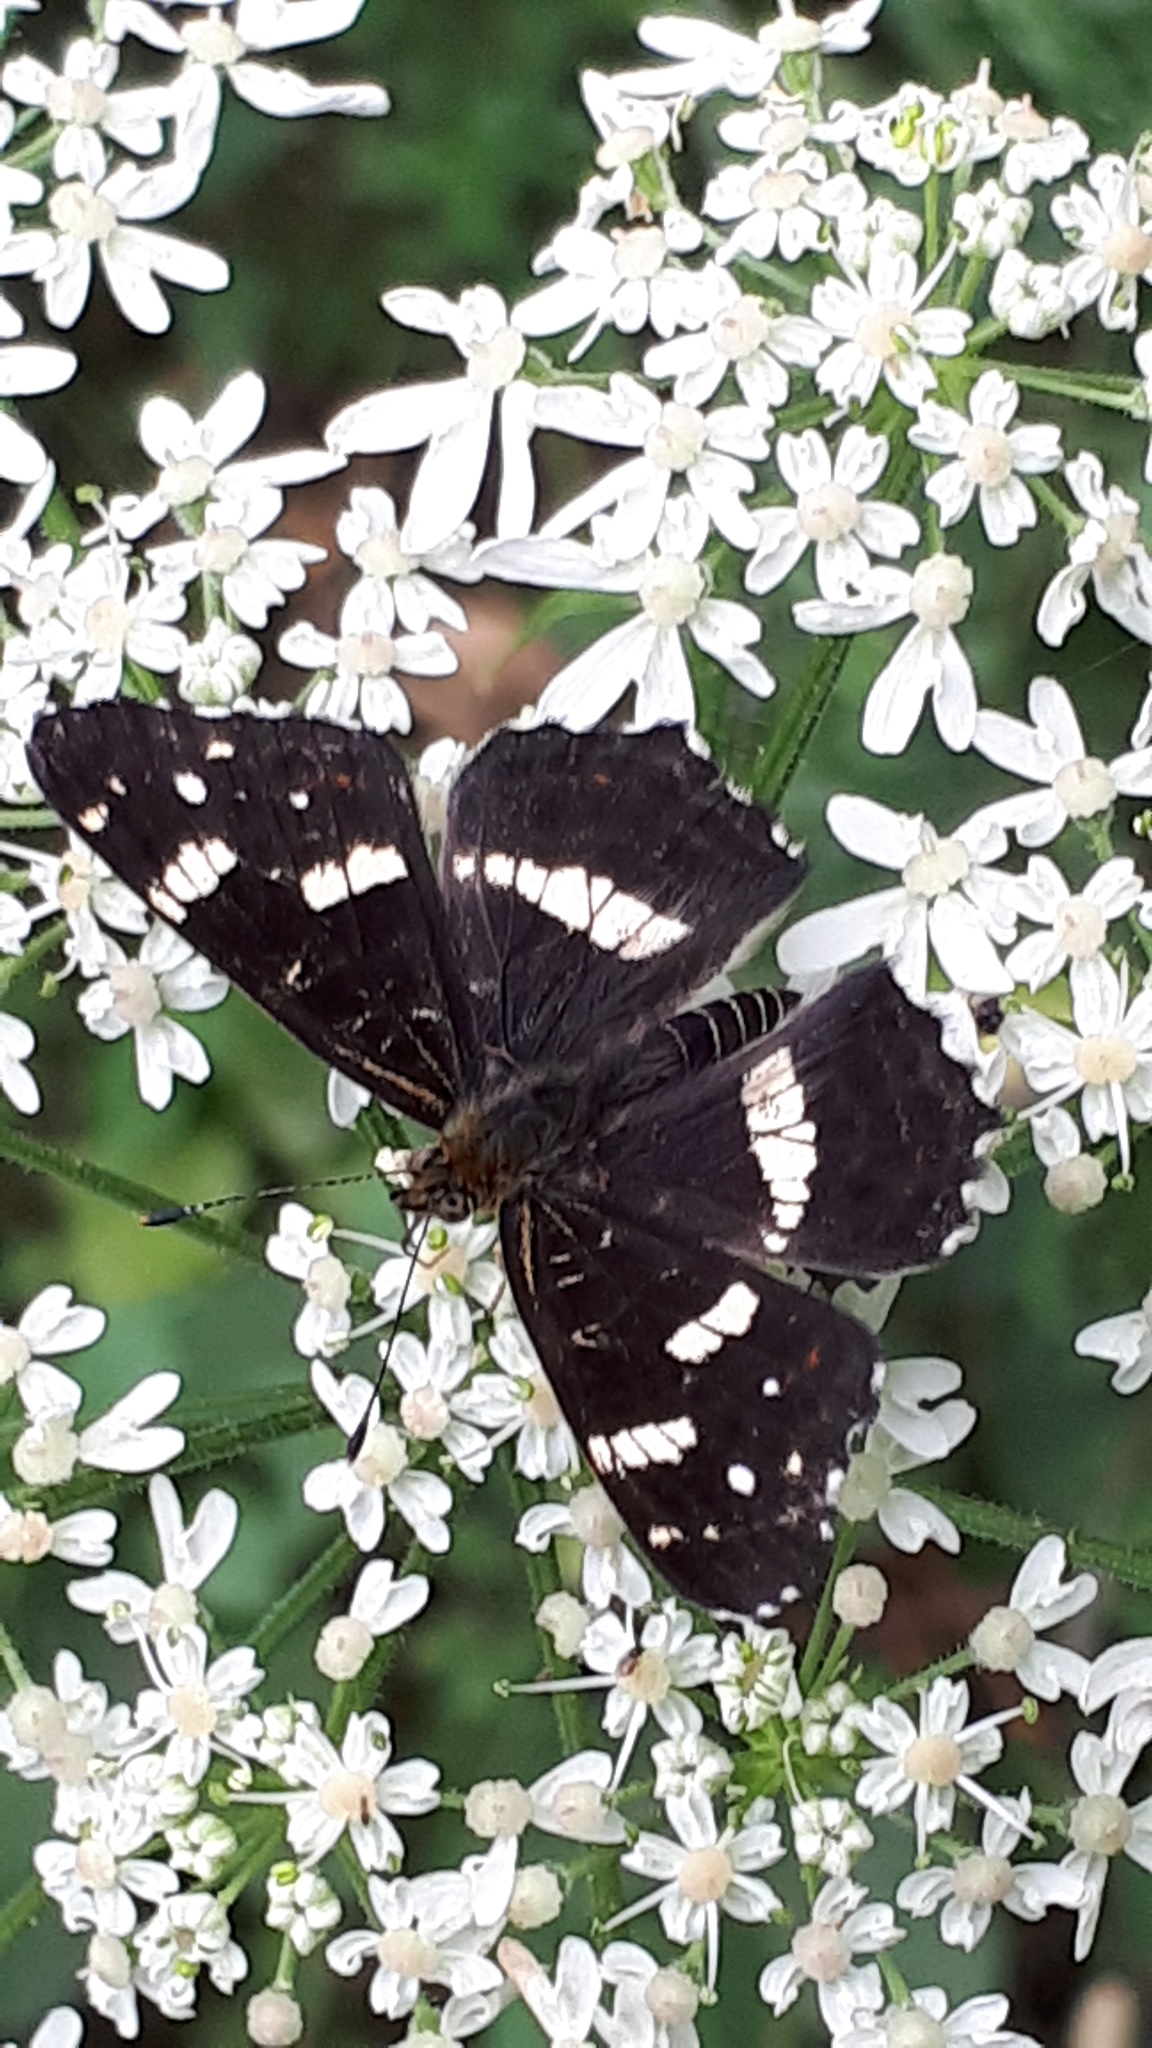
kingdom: Animalia
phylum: Arthropoda
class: Insecta
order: Lepidoptera
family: Nymphalidae
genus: Araschnia
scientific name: Araschnia levana
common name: Map butterfly
